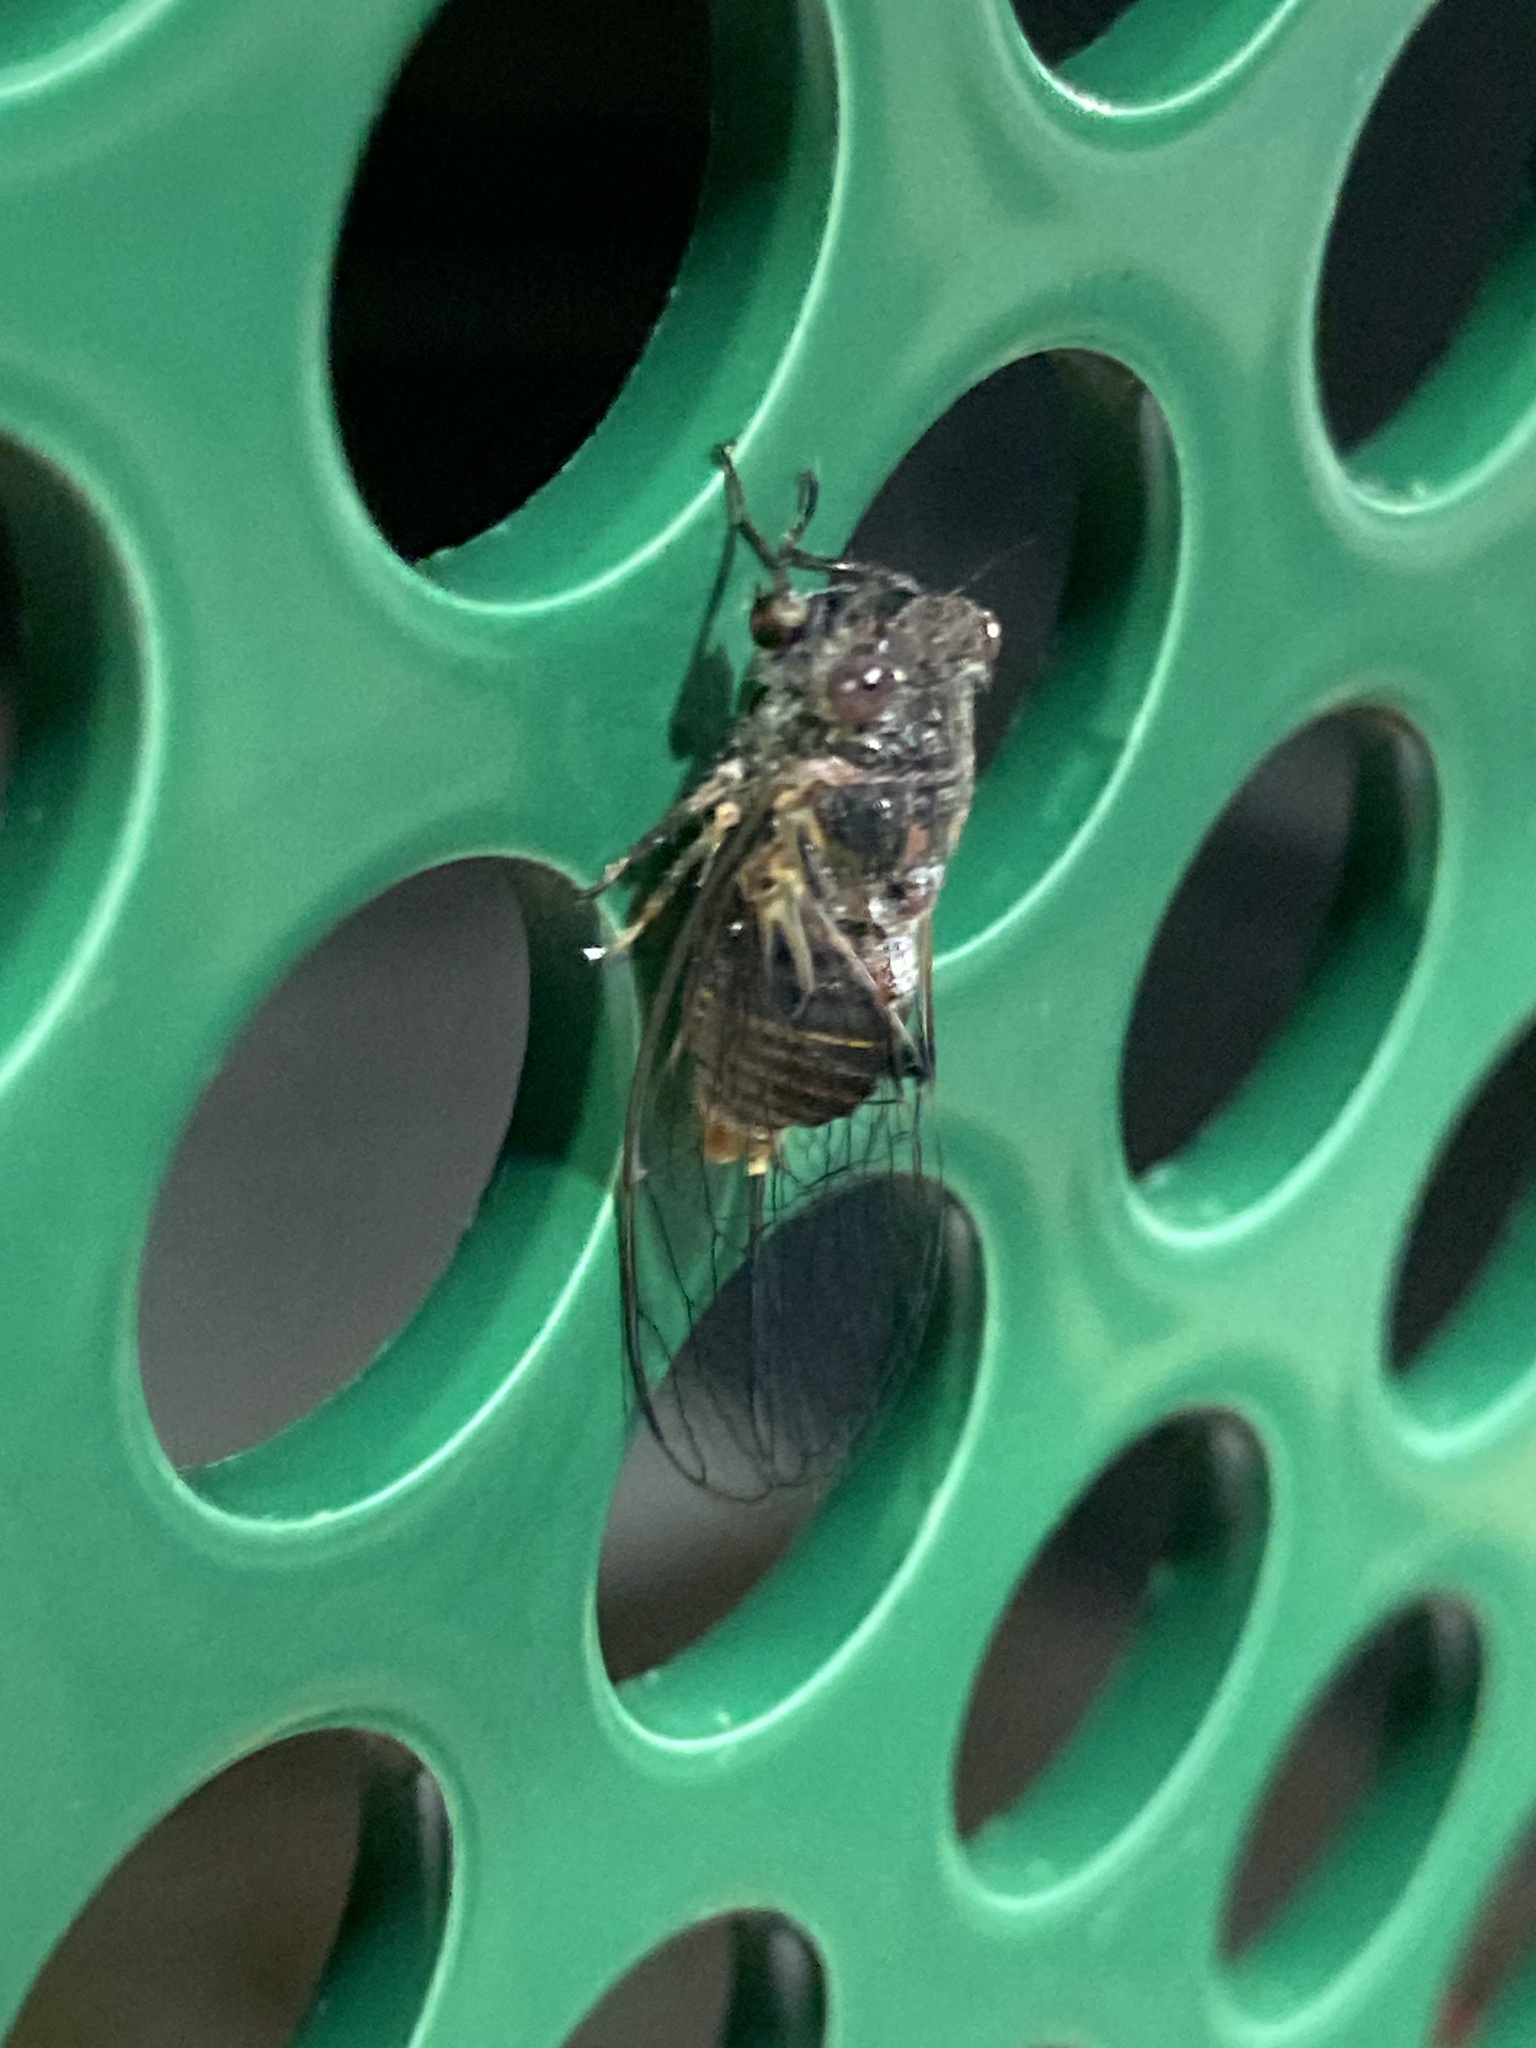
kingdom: Animalia
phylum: Arthropoda
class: Insecta
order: Hemiptera
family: Cicadidae
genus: Popplepsalta
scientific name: Popplepsalta notialis
